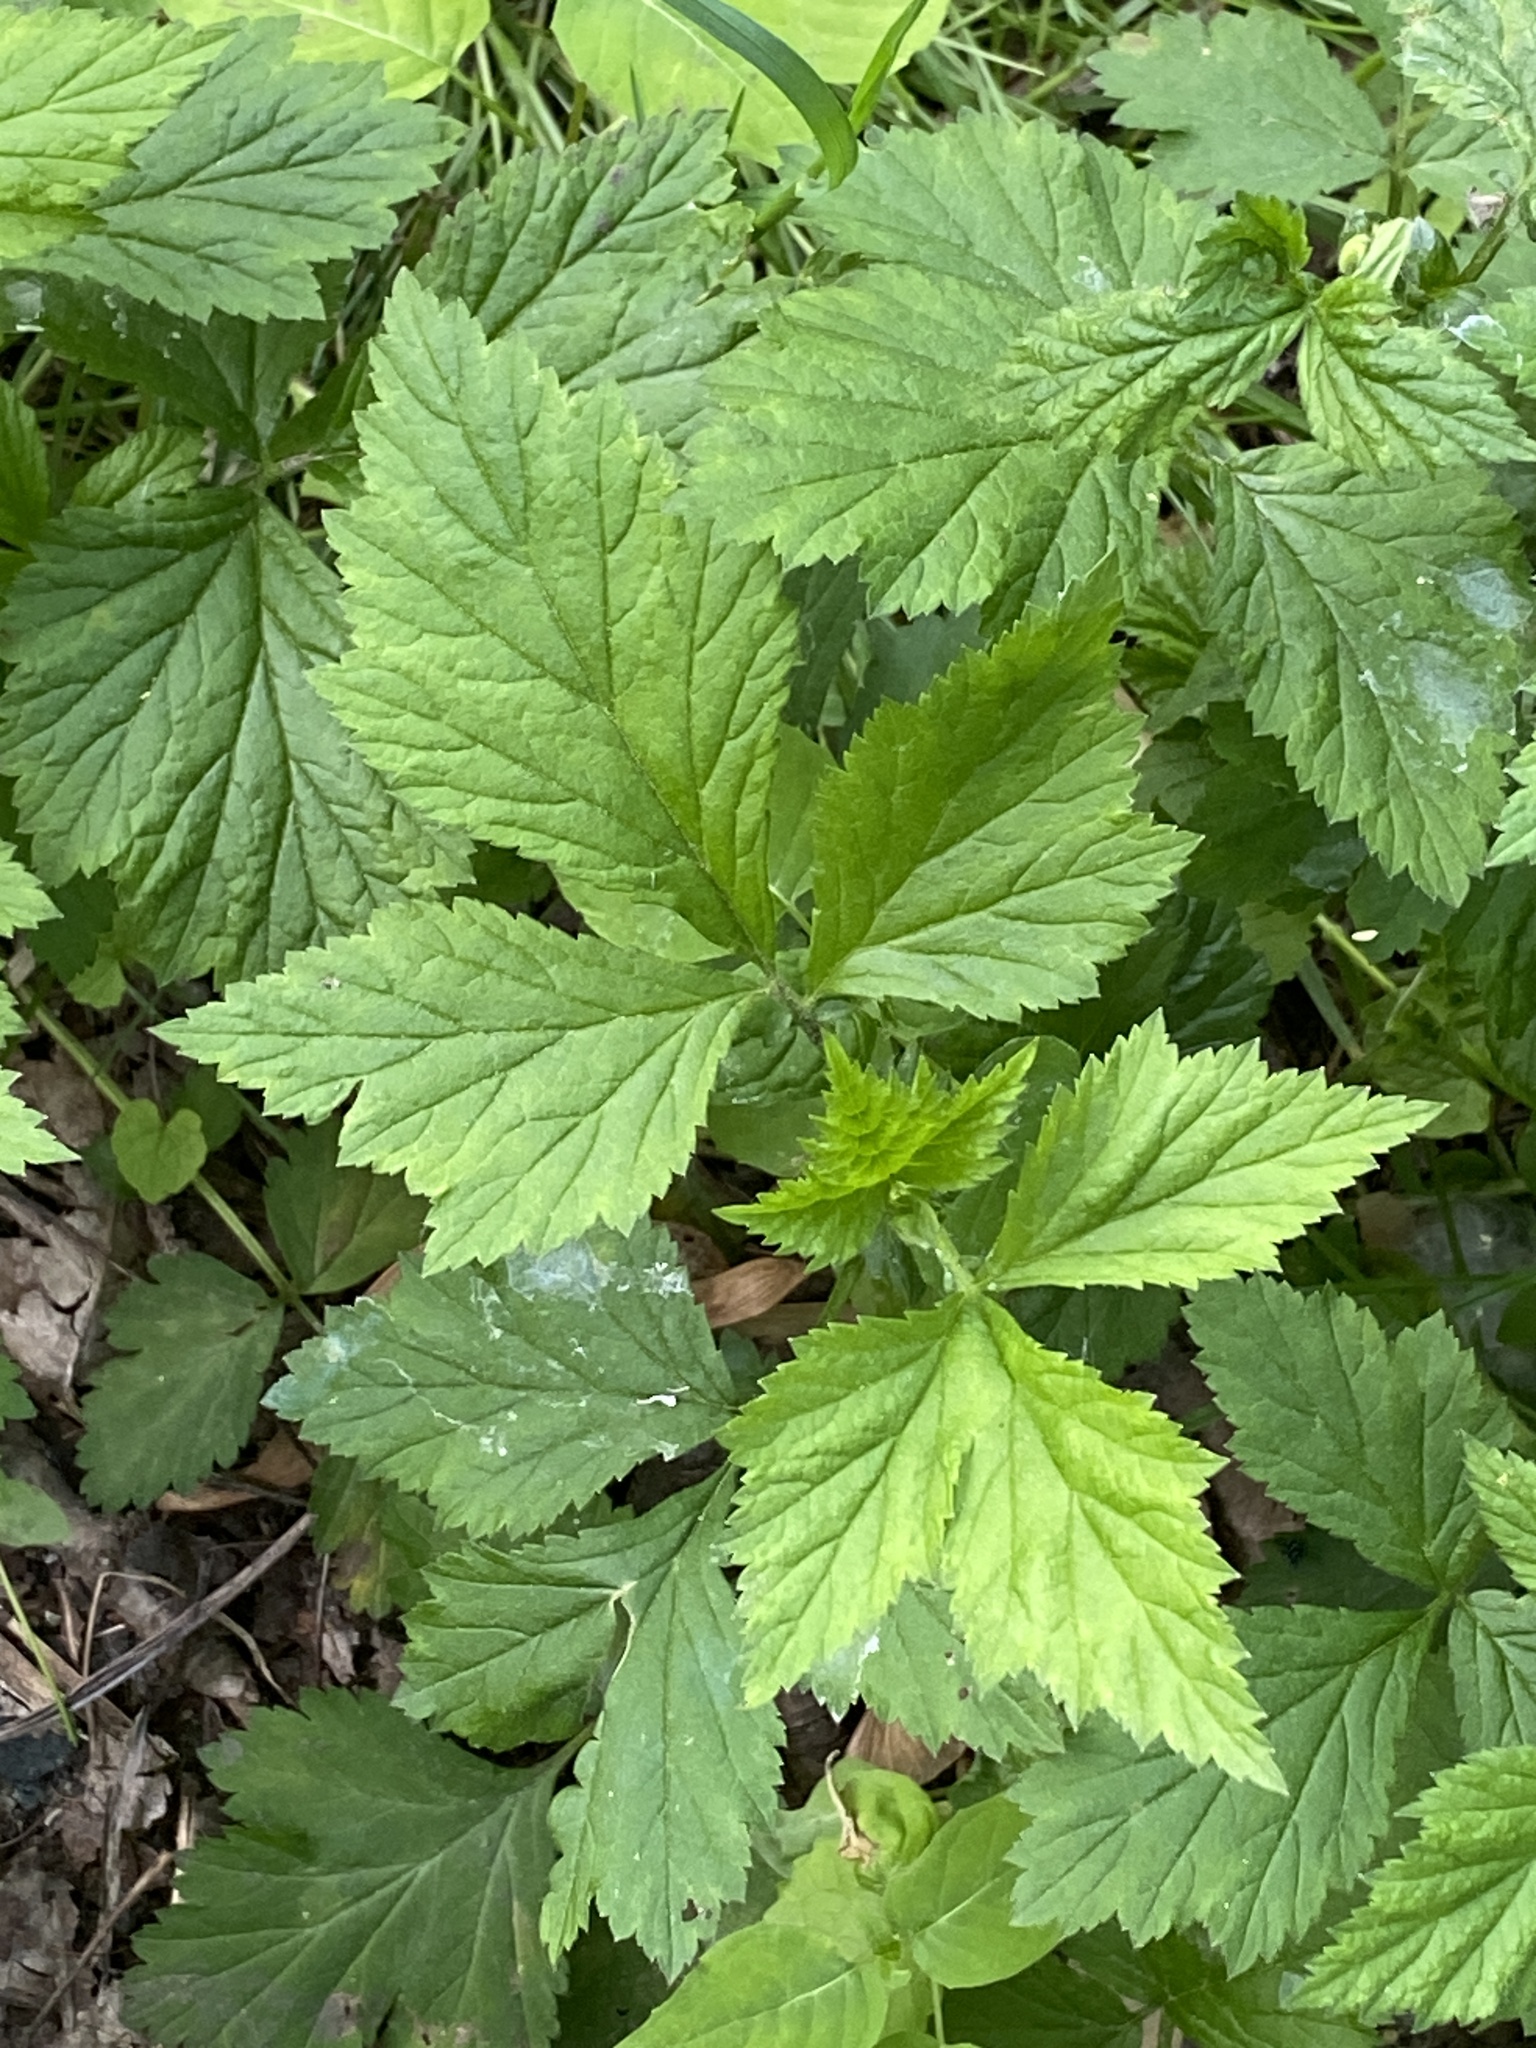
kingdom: Plantae
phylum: Tracheophyta
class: Magnoliopsida
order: Rosales
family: Rosaceae
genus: Geum
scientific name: Geum canadense
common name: White avens
